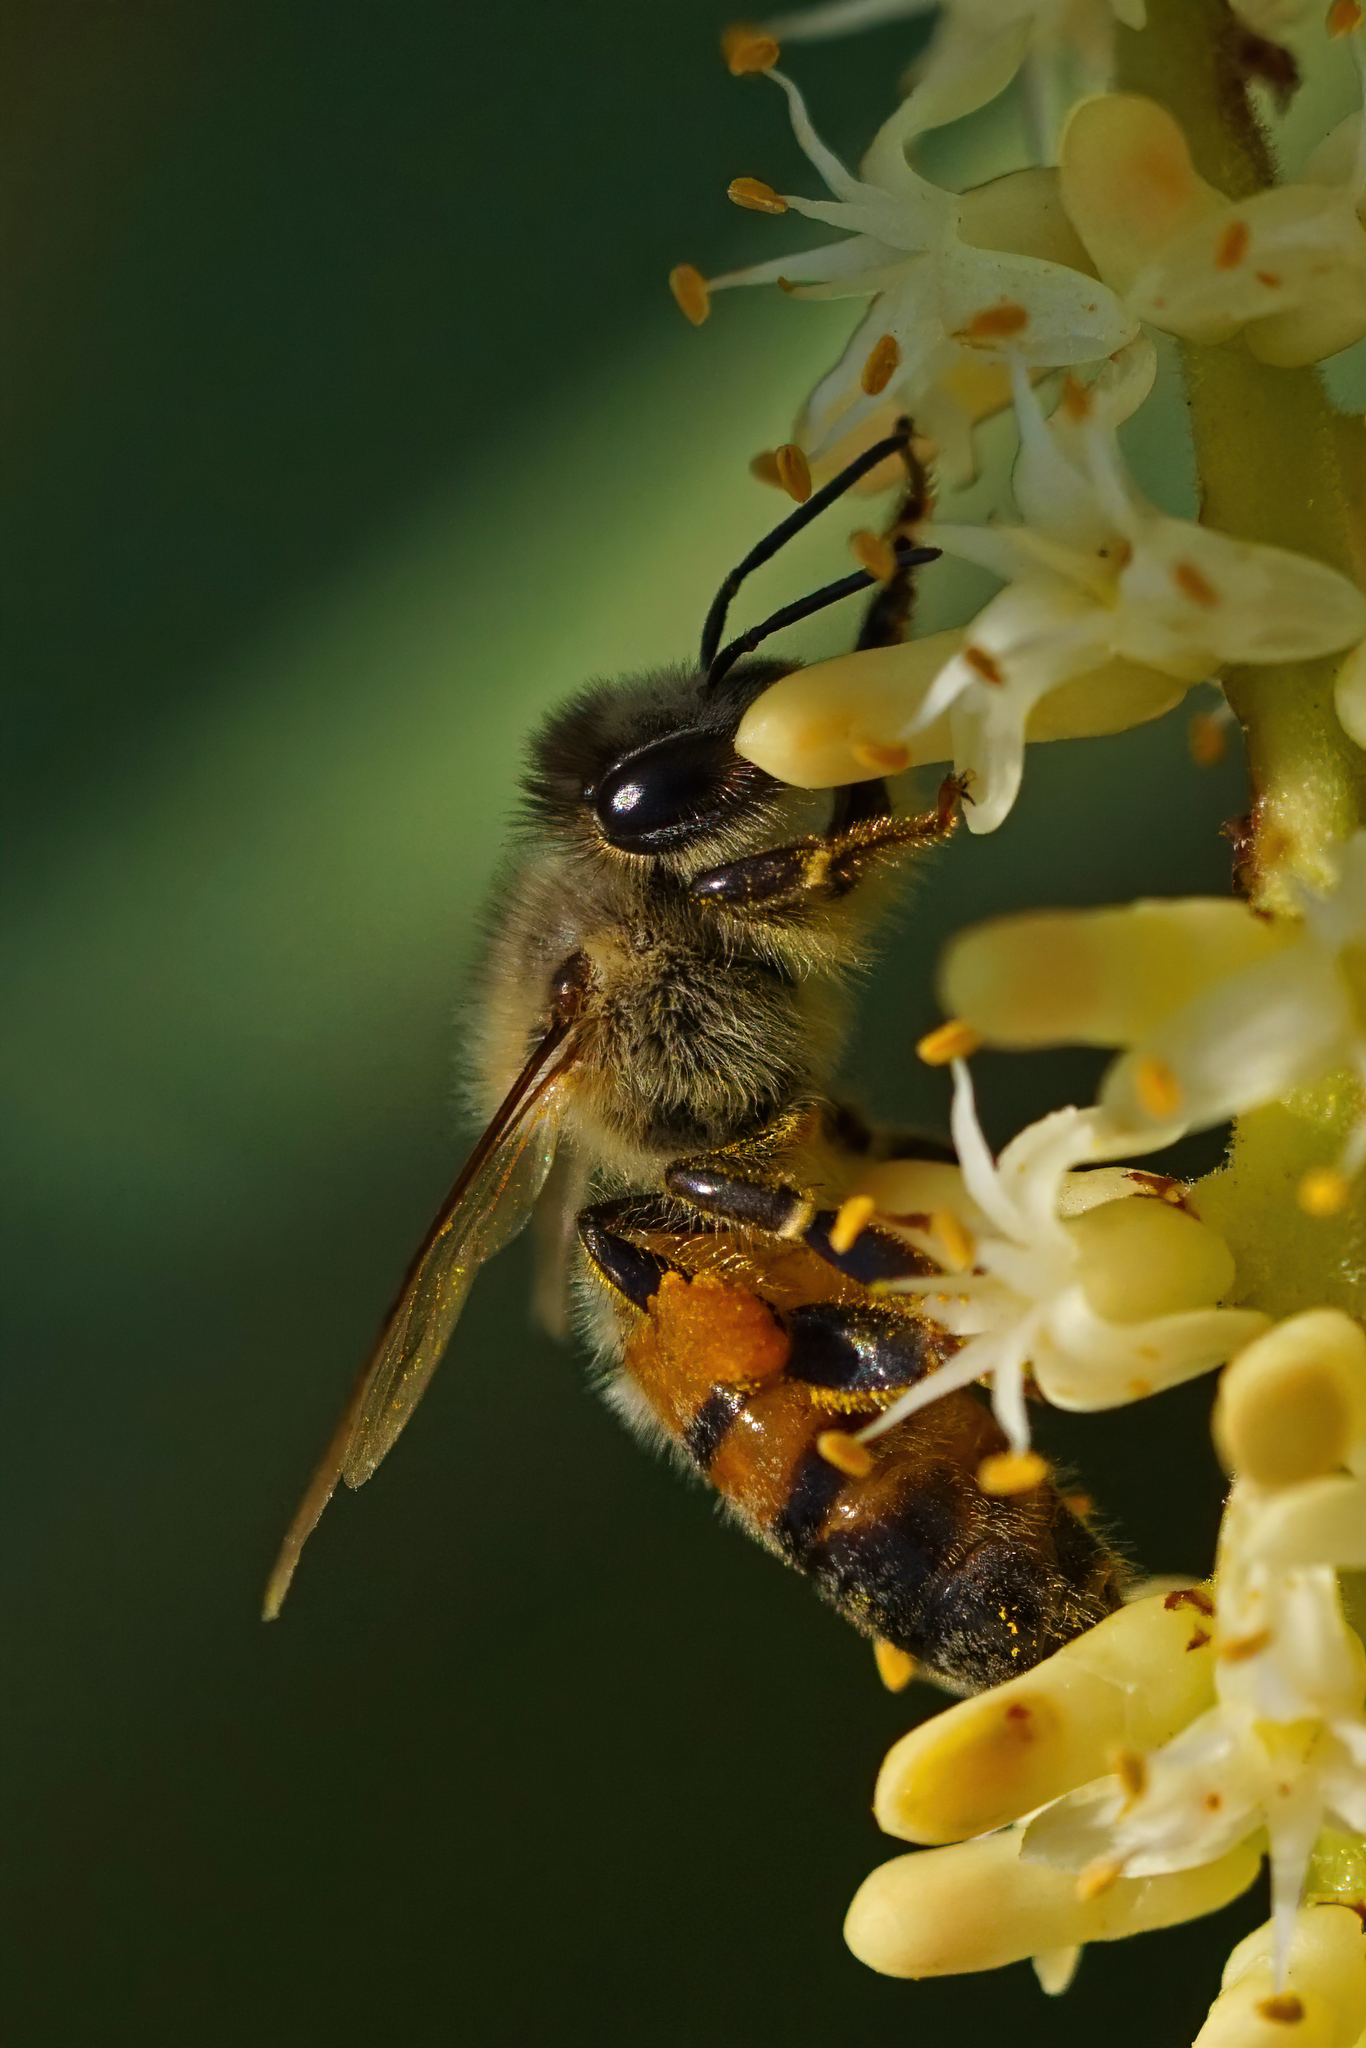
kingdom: Animalia
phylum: Arthropoda
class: Insecta
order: Hymenoptera
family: Apidae
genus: Apis
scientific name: Apis mellifera
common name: Honey bee
